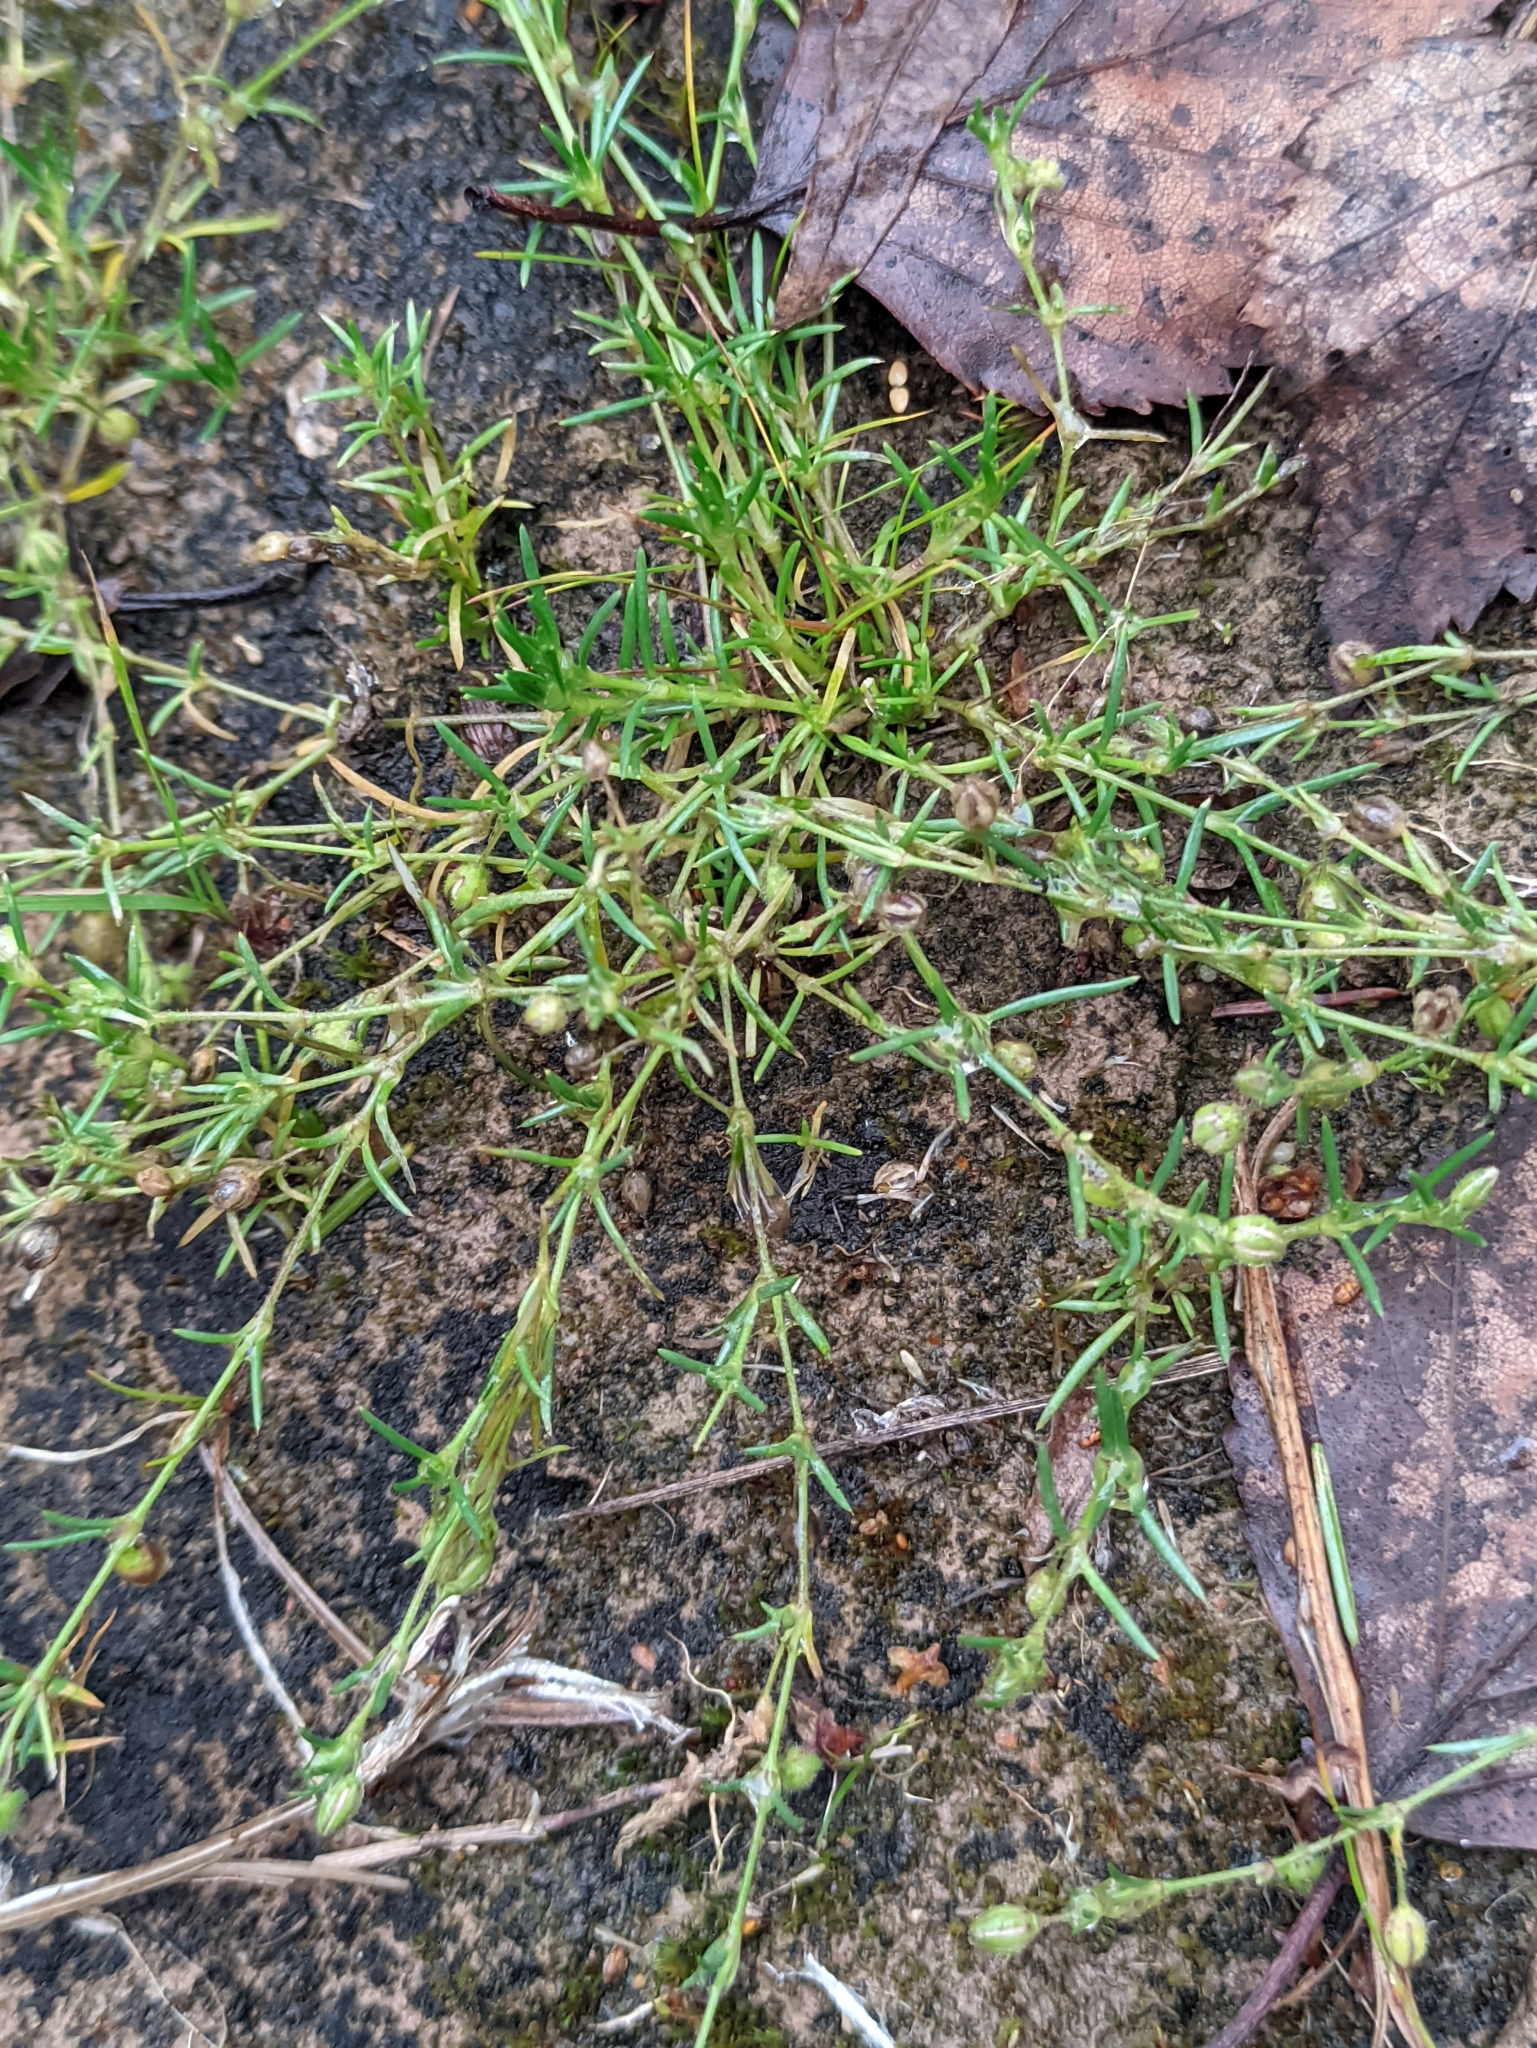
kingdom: Plantae
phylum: Tracheophyta
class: Magnoliopsida
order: Caryophyllales
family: Caryophyllaceae
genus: Spergularia
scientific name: Spergularia rubra
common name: Red sand-spurrey
